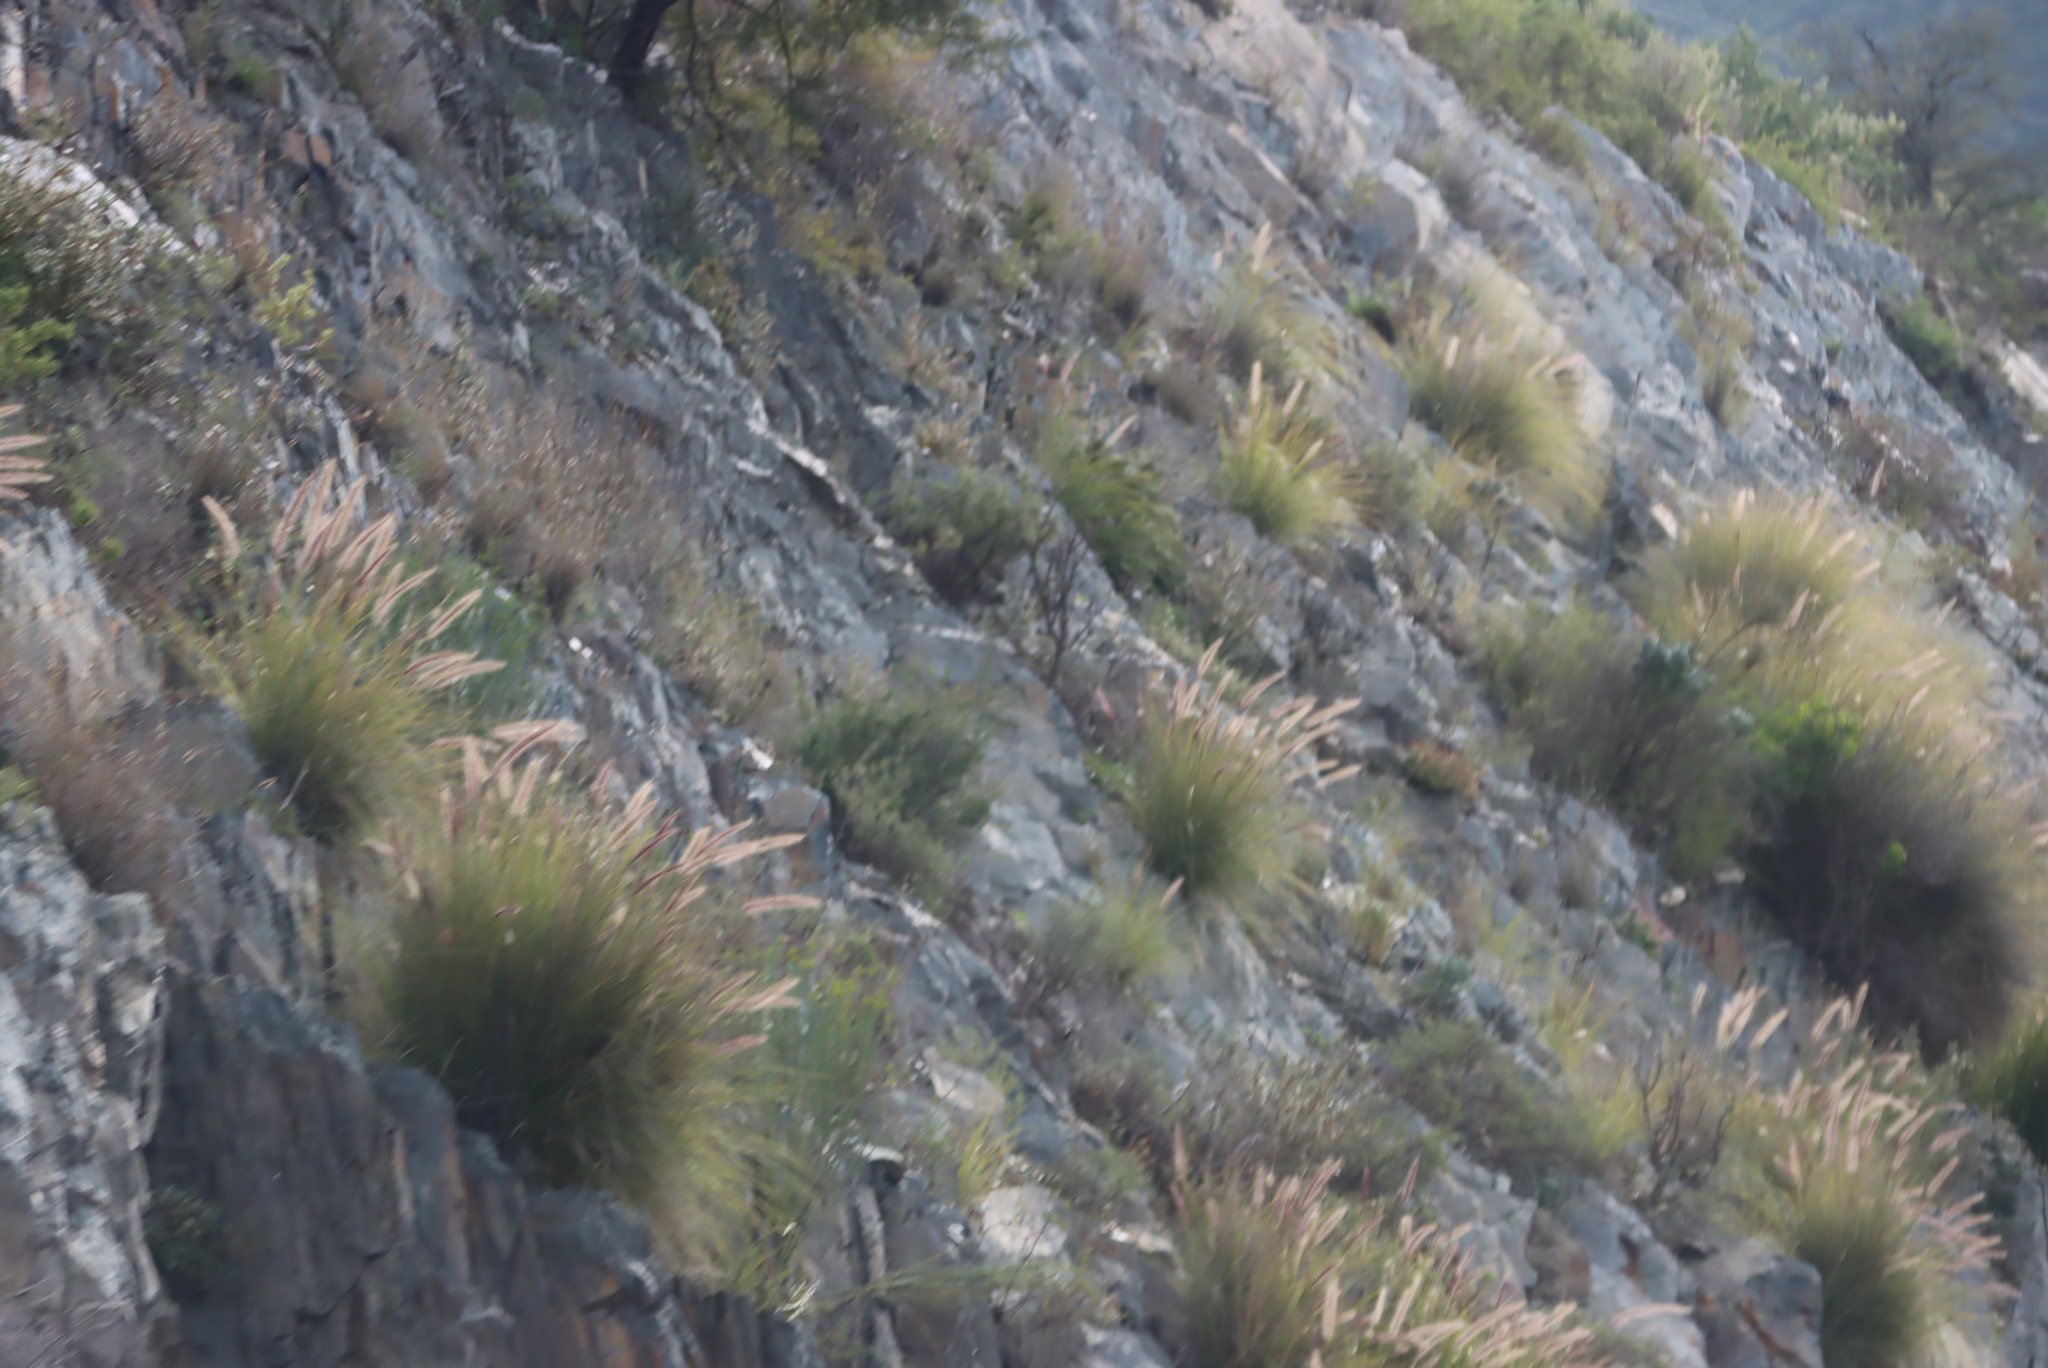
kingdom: Plantae
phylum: Tracheophyta
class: Liliopsida
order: Poales
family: Poaceae
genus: Cenchrus
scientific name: Cenchrus setaceus
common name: Crimson fountaingrass
